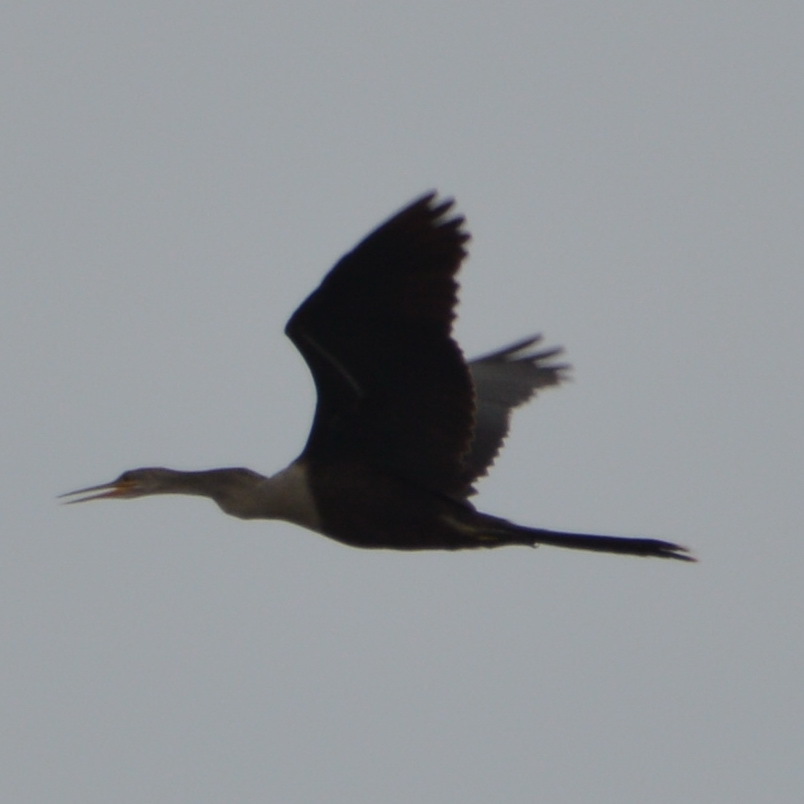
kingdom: Animalia
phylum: Chordata
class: Aves
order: Suliformes
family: Anhingidae
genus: Anhinga
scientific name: Anhinga anhinga
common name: Anhinga
